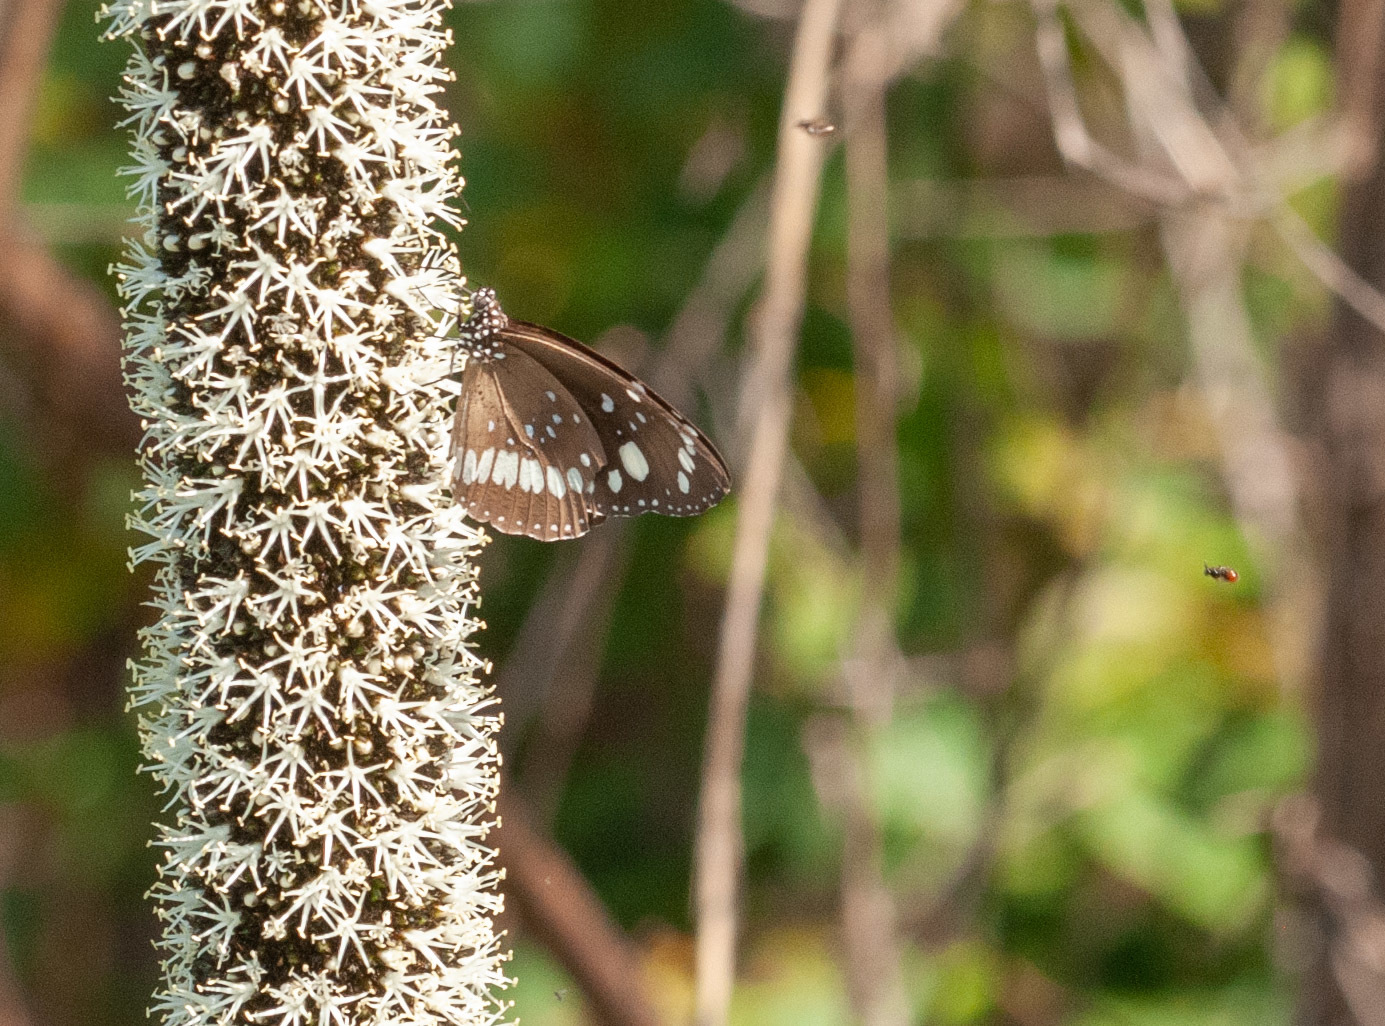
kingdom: Animalia
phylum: Arthropoda
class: Insecta
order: Lepidoptera
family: Nymphalidae
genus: Euploea
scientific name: Euploea core
